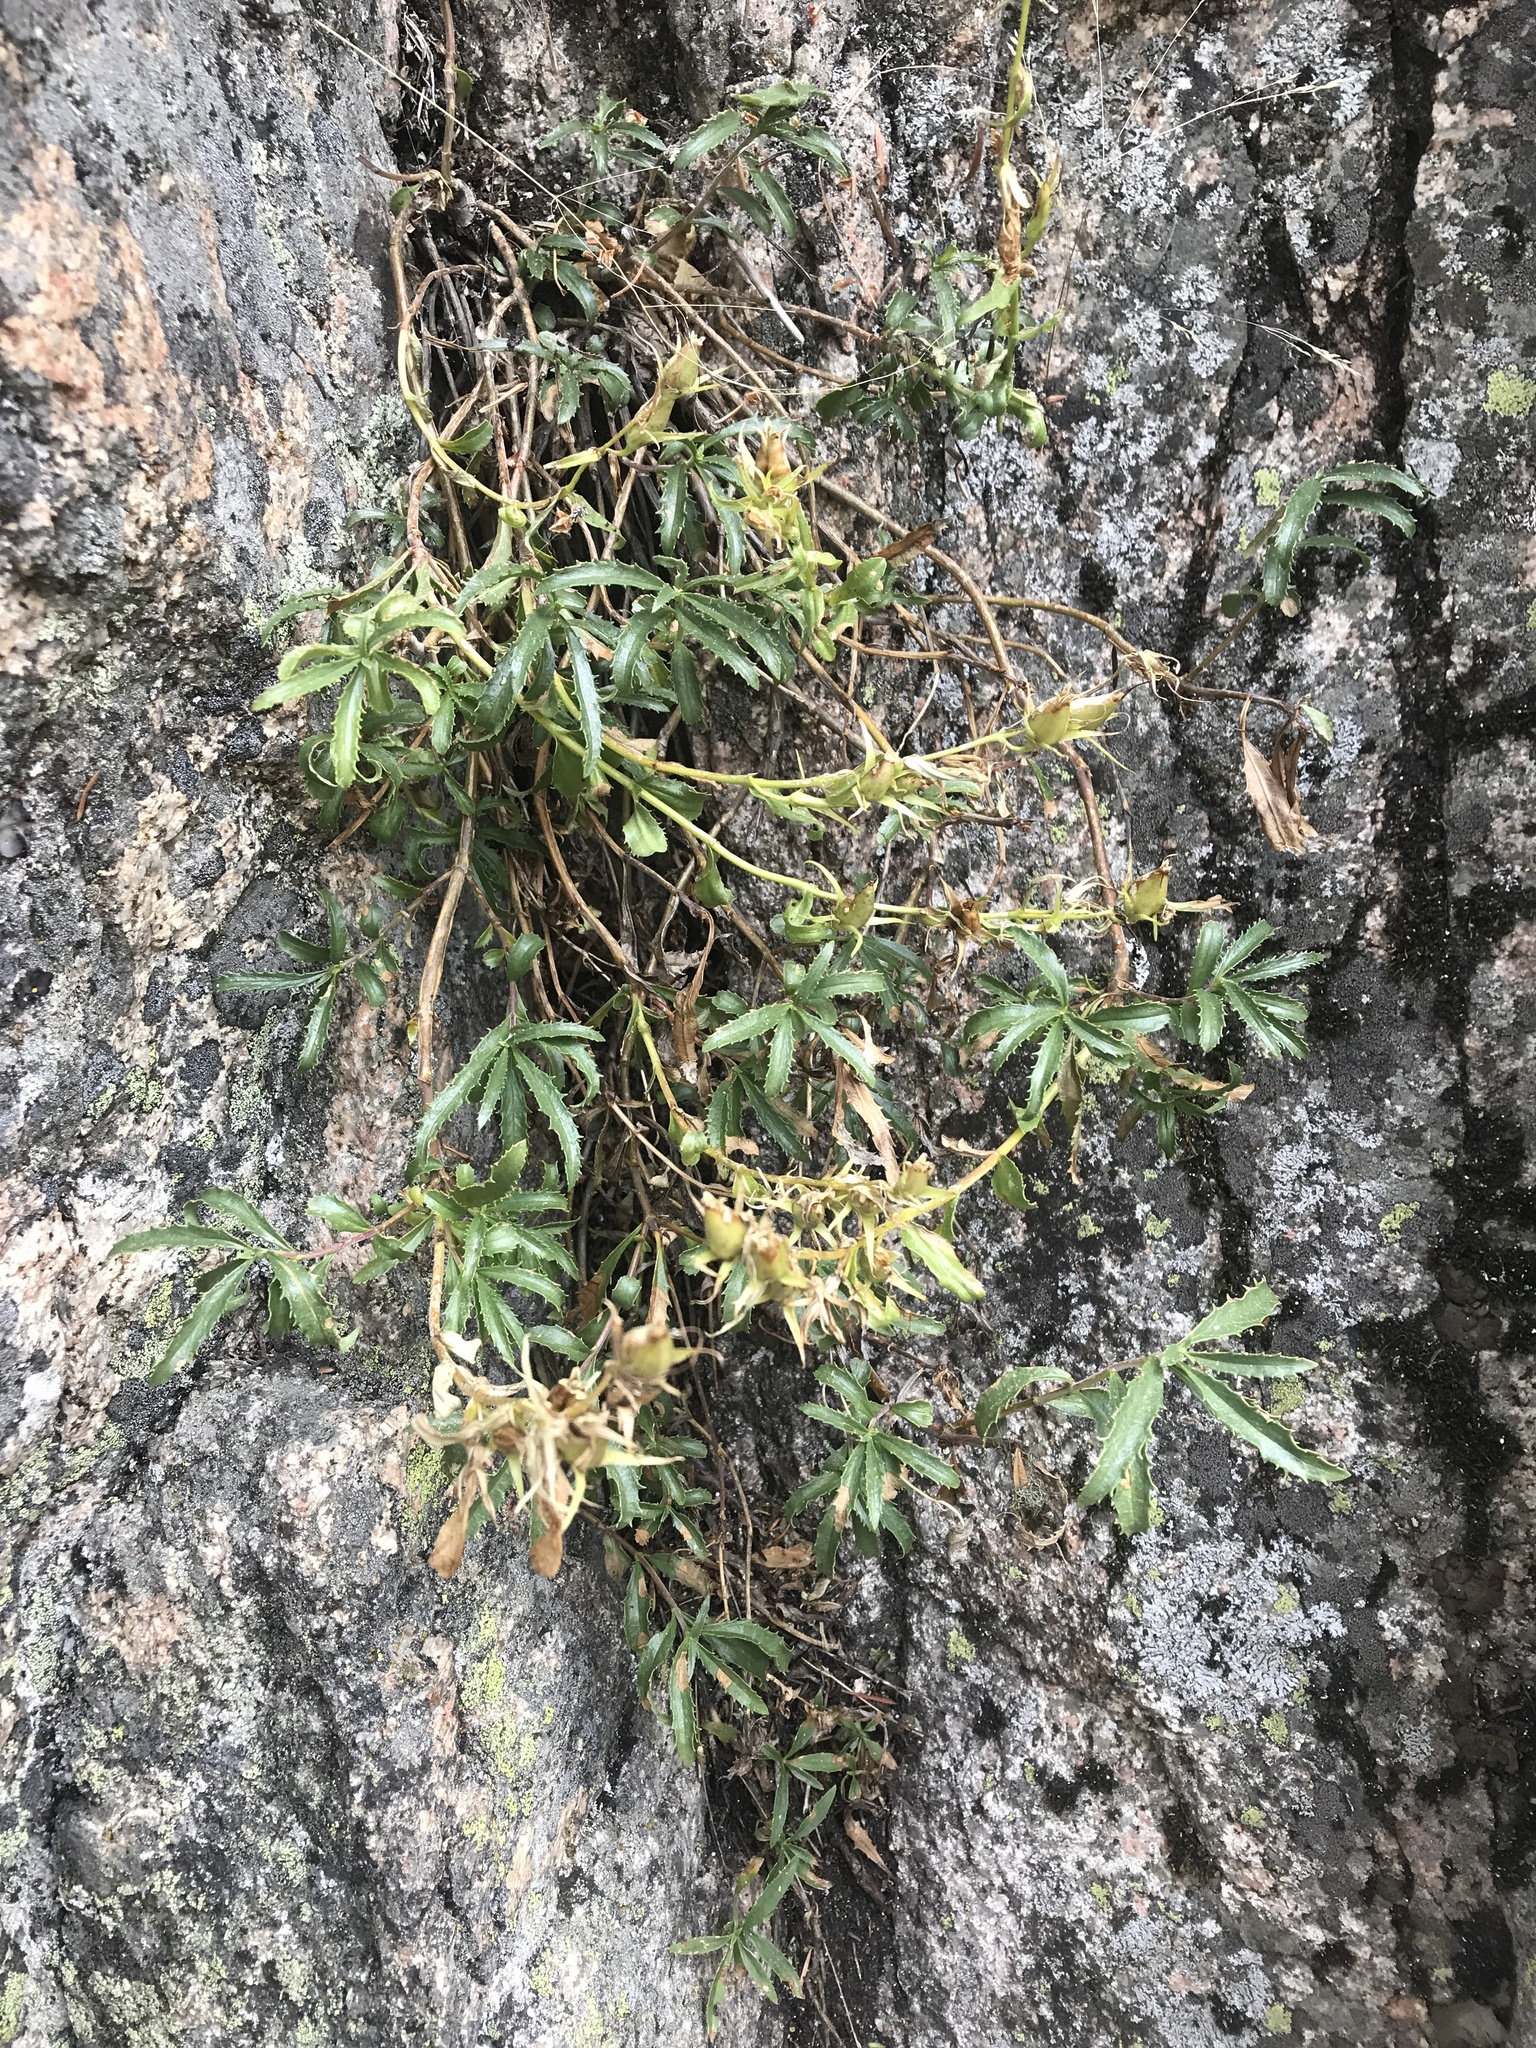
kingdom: Plantae
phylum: Tracheophyta
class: Magnoliopsida
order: Lamiales
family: Plantaginaceae
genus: Penstemon
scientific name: Penstemon fruticosus
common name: Bush penstemon
